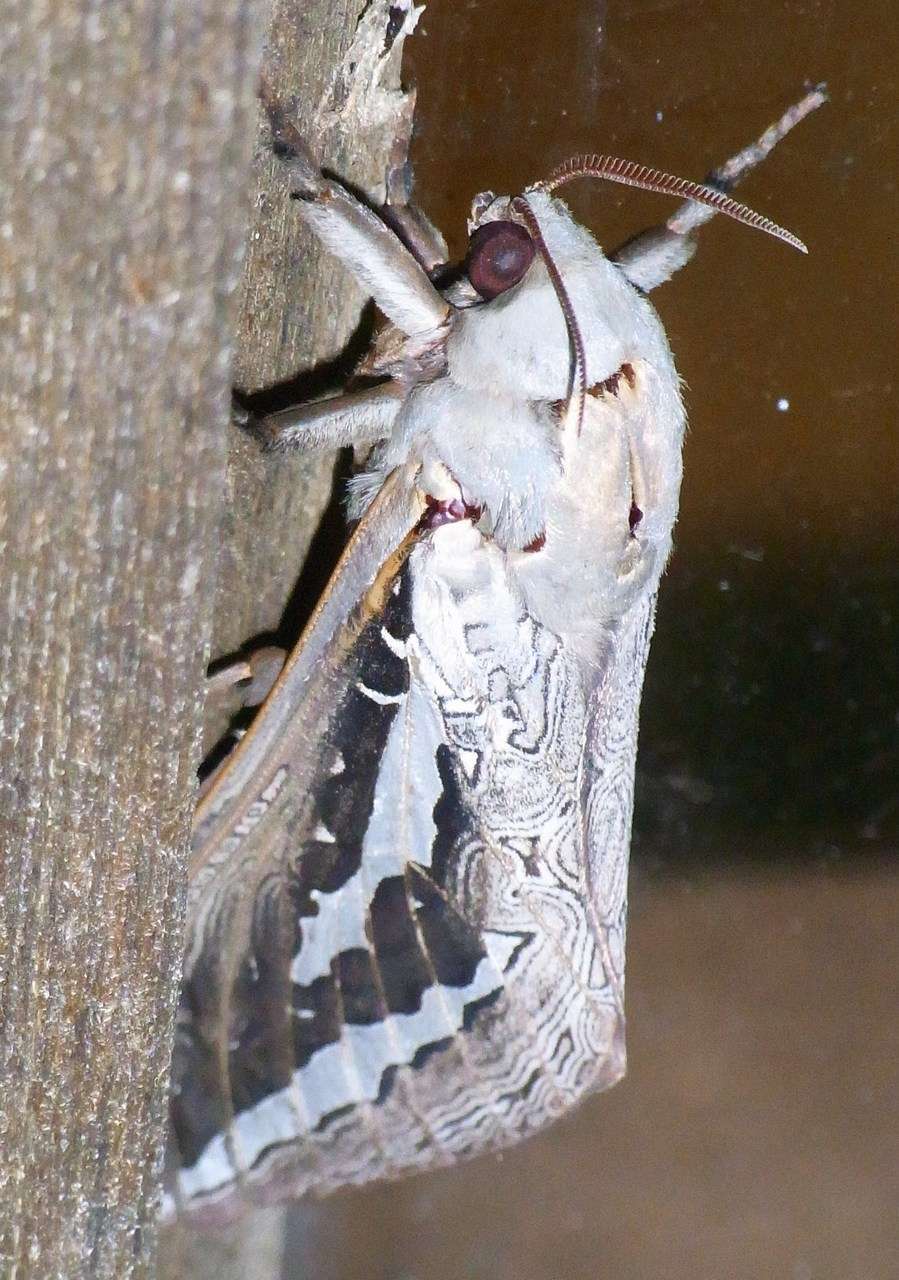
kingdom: Animalia
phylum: Arthropoda
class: Insecta
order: Lepidoptera
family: Hepialidae
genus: Abantiades
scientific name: Abantiades labyrinthicus
